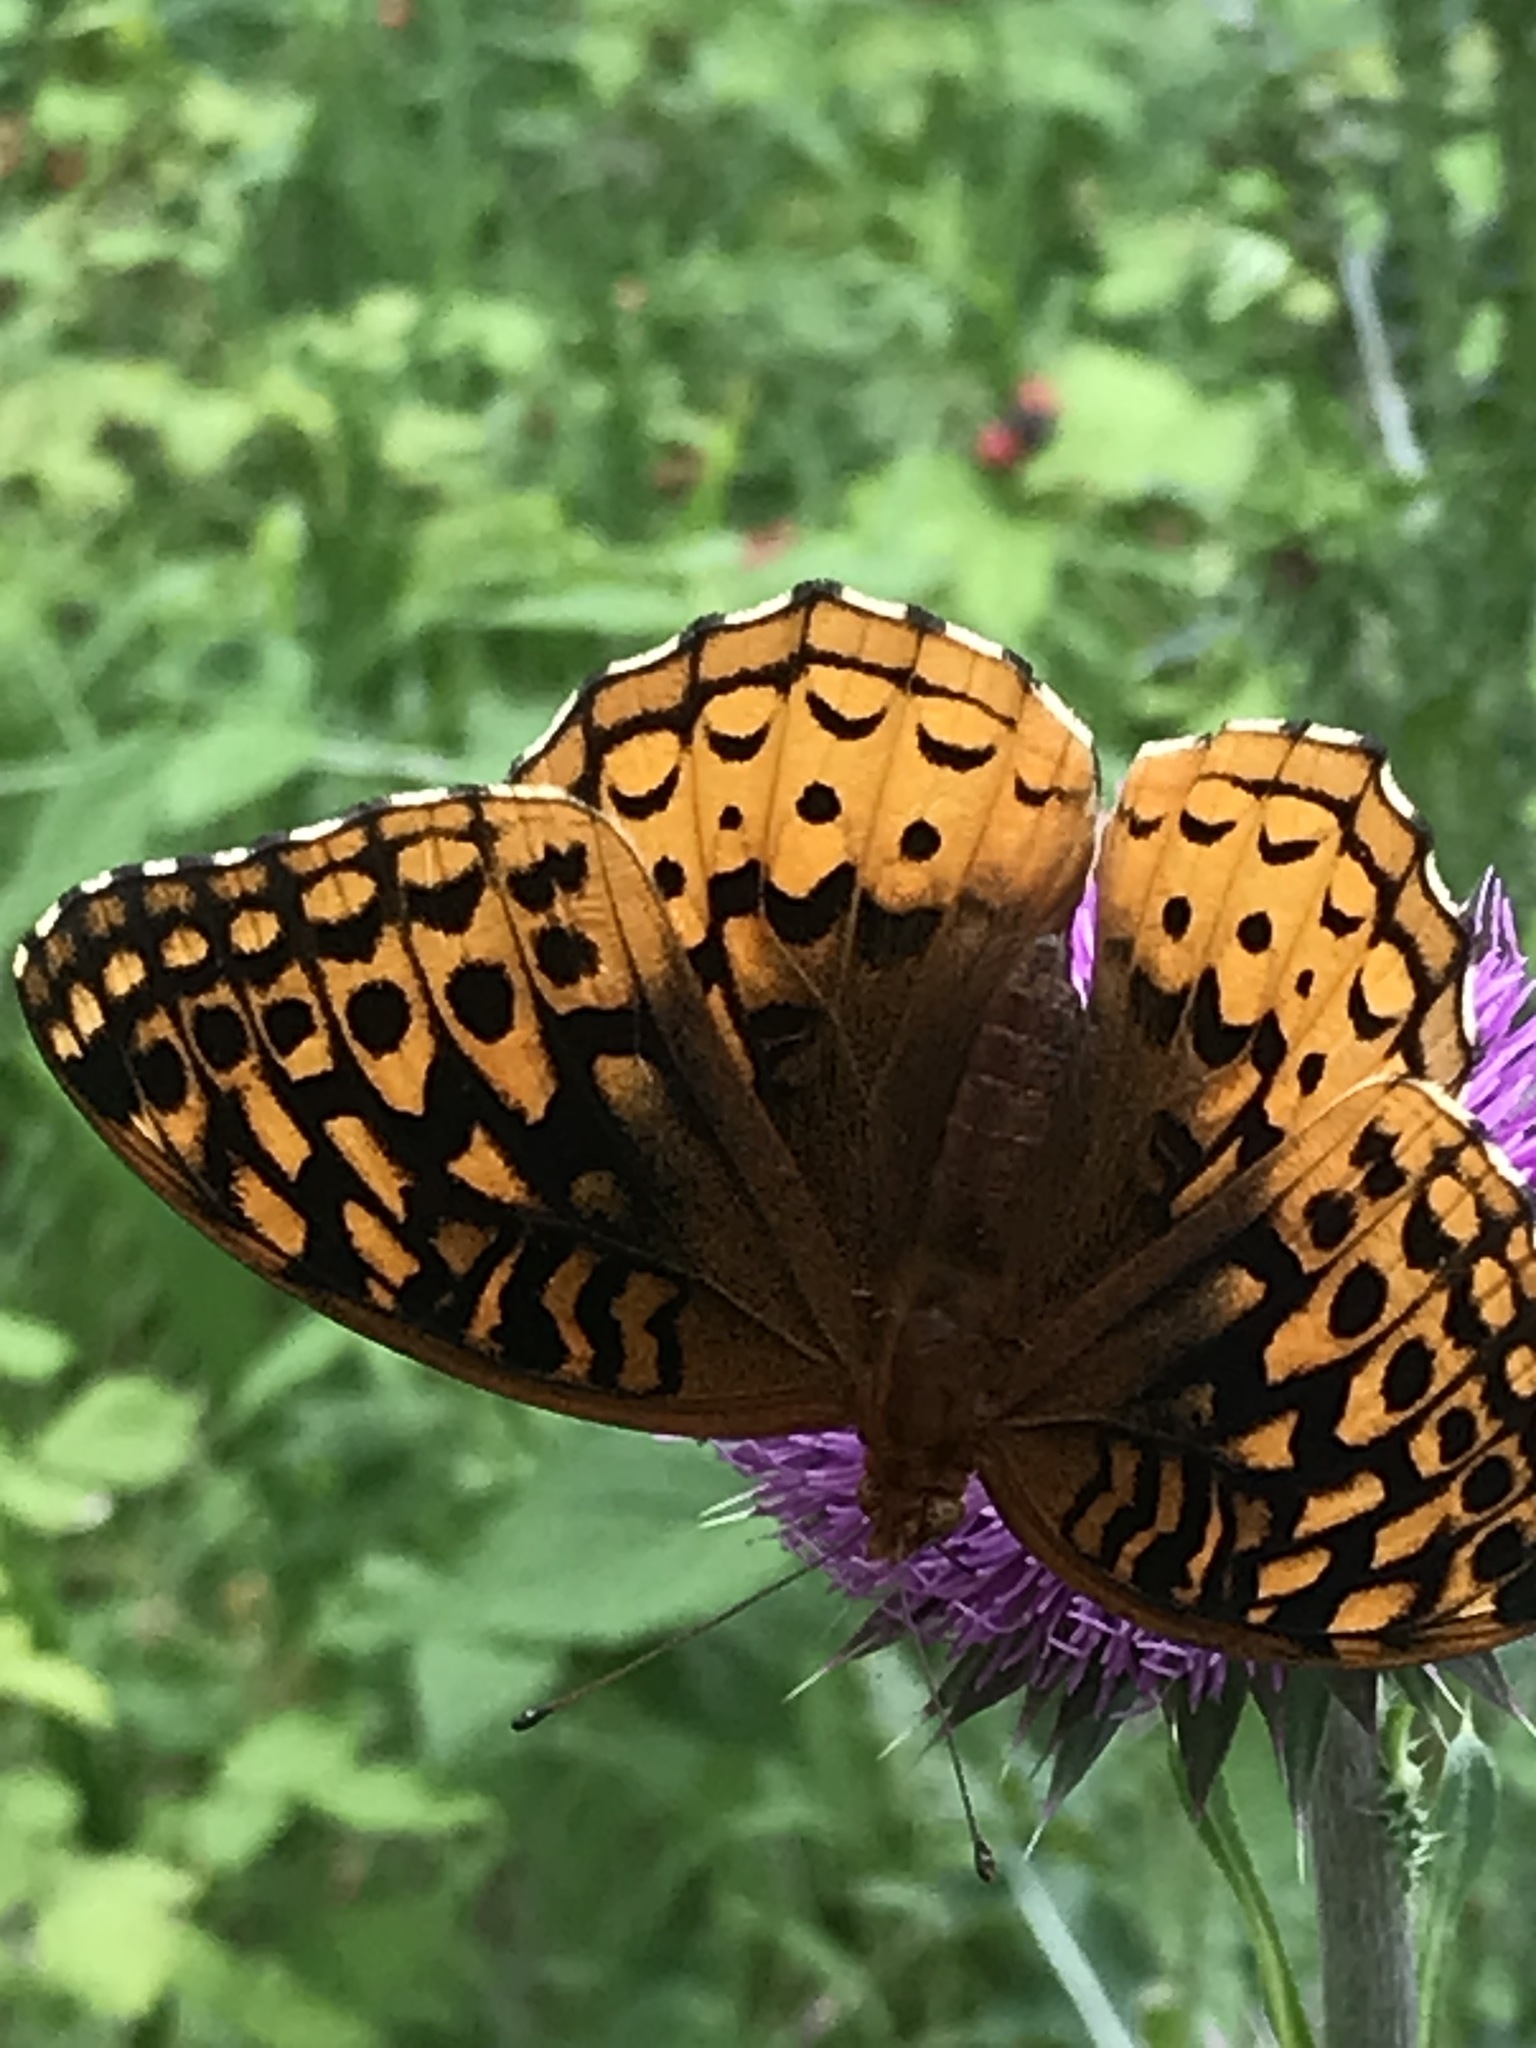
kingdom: Animalia
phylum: Arthropoda
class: Insecta
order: Lepidoptera
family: Nymphalidae
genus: Speyeria
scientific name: Speyeria cybele
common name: Great spangled fritillary
